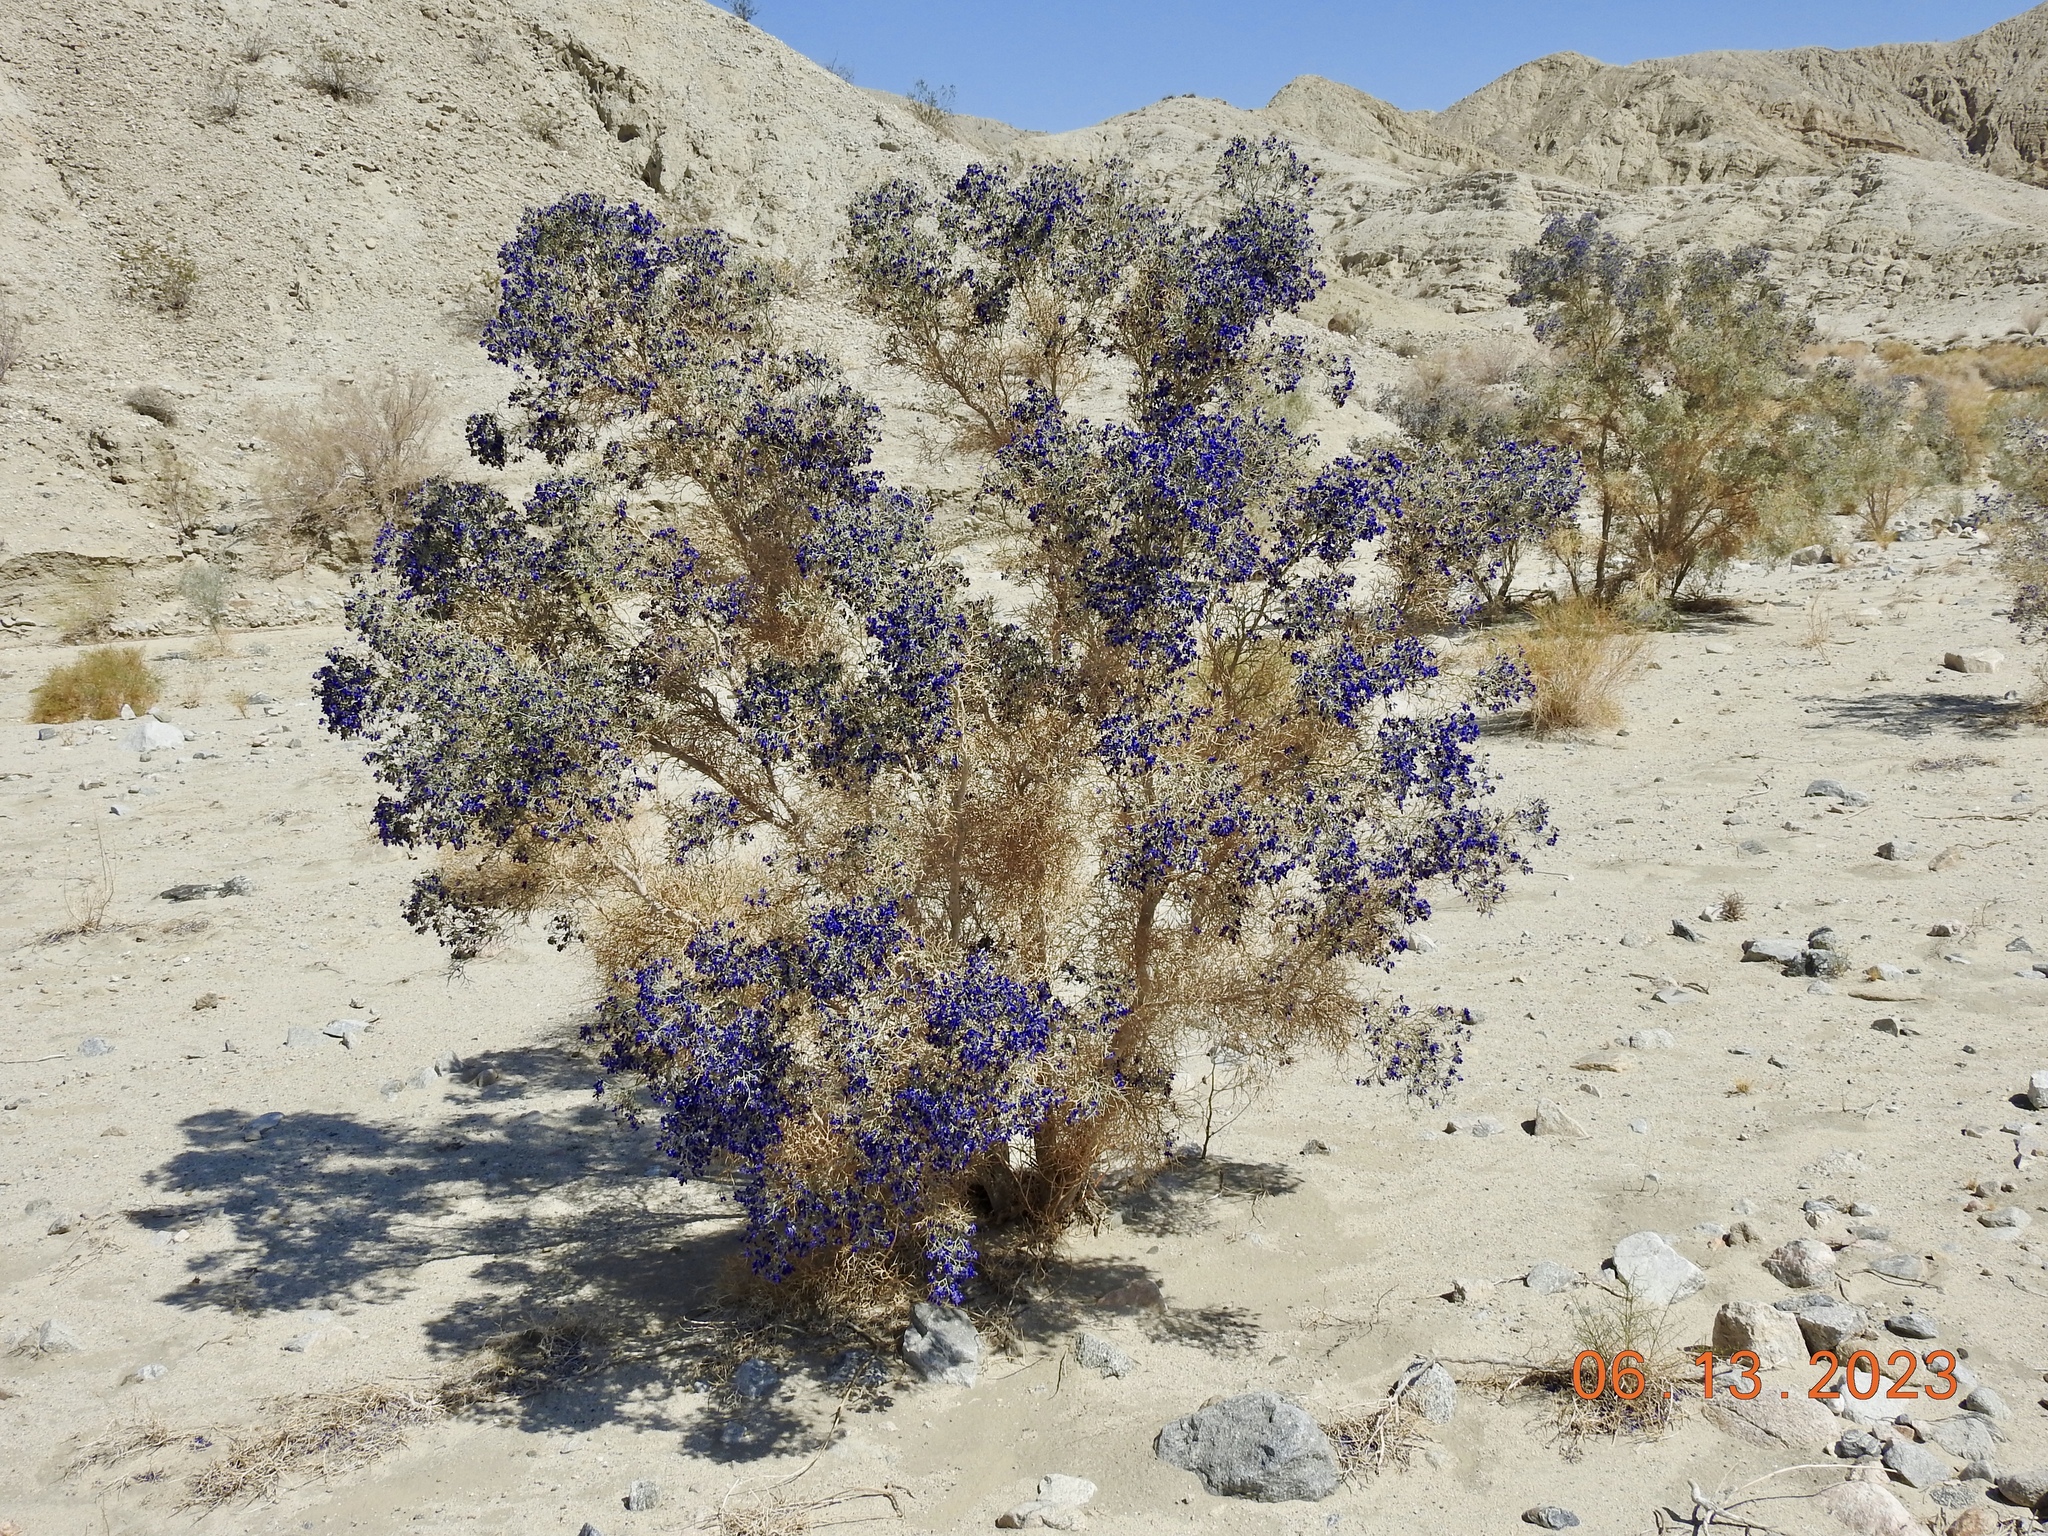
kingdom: Plantae
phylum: Tracheophyta
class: Magnoliopsida
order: Fabales
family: Fabaceae
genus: Psorothamnus
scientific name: Psorothamnus spinosus
